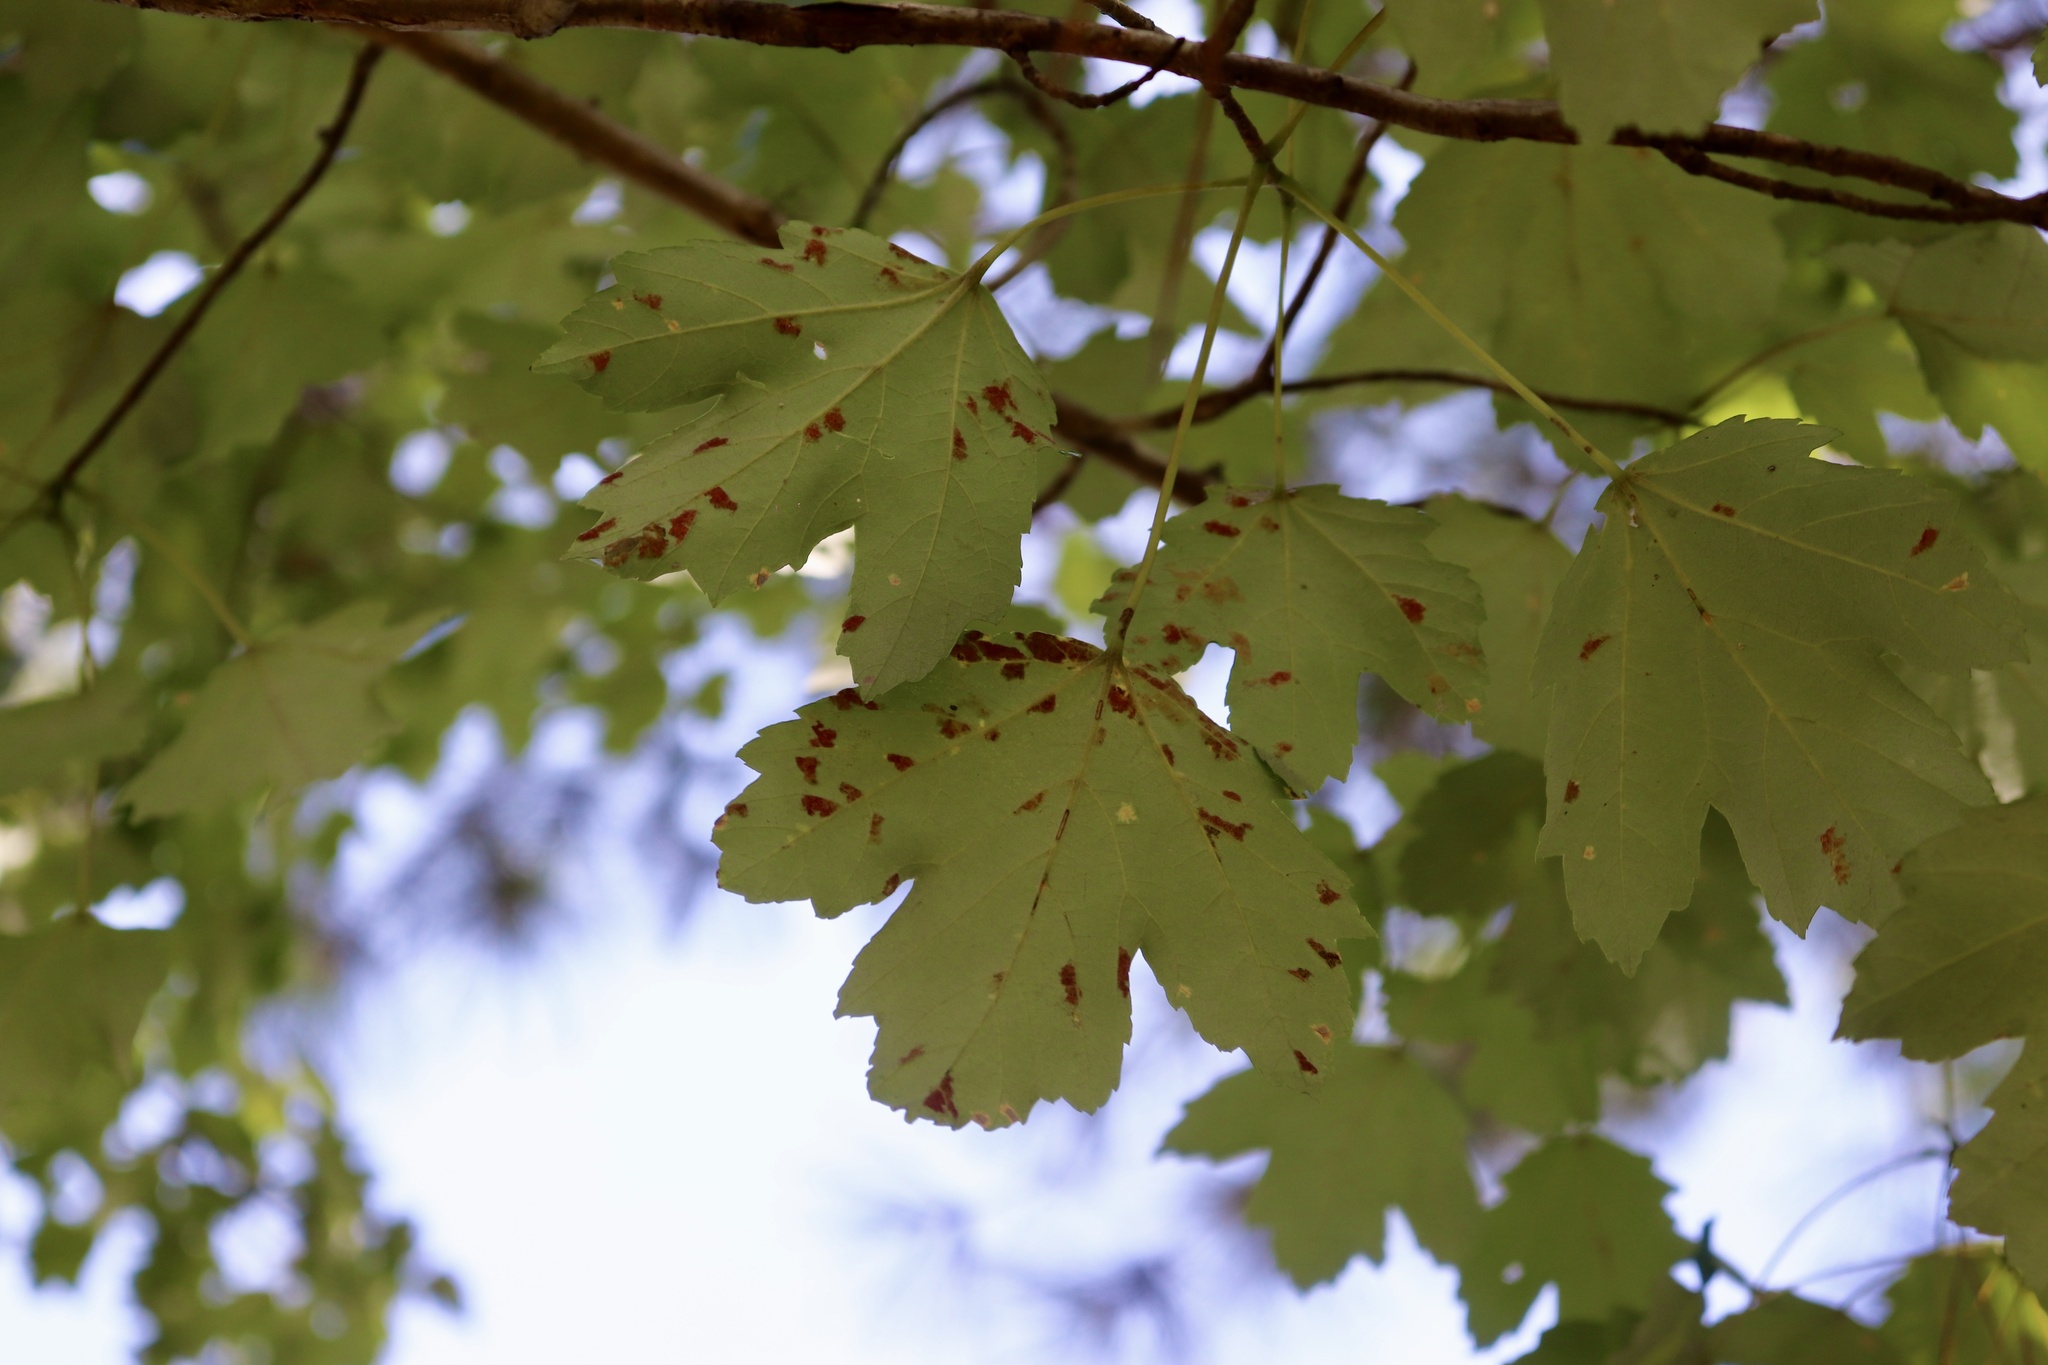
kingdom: Animalia
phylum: Arthropoda
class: Arachnida
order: Trombidiformes
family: Eriophyidae
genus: Aceria
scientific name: Aceria mayae
